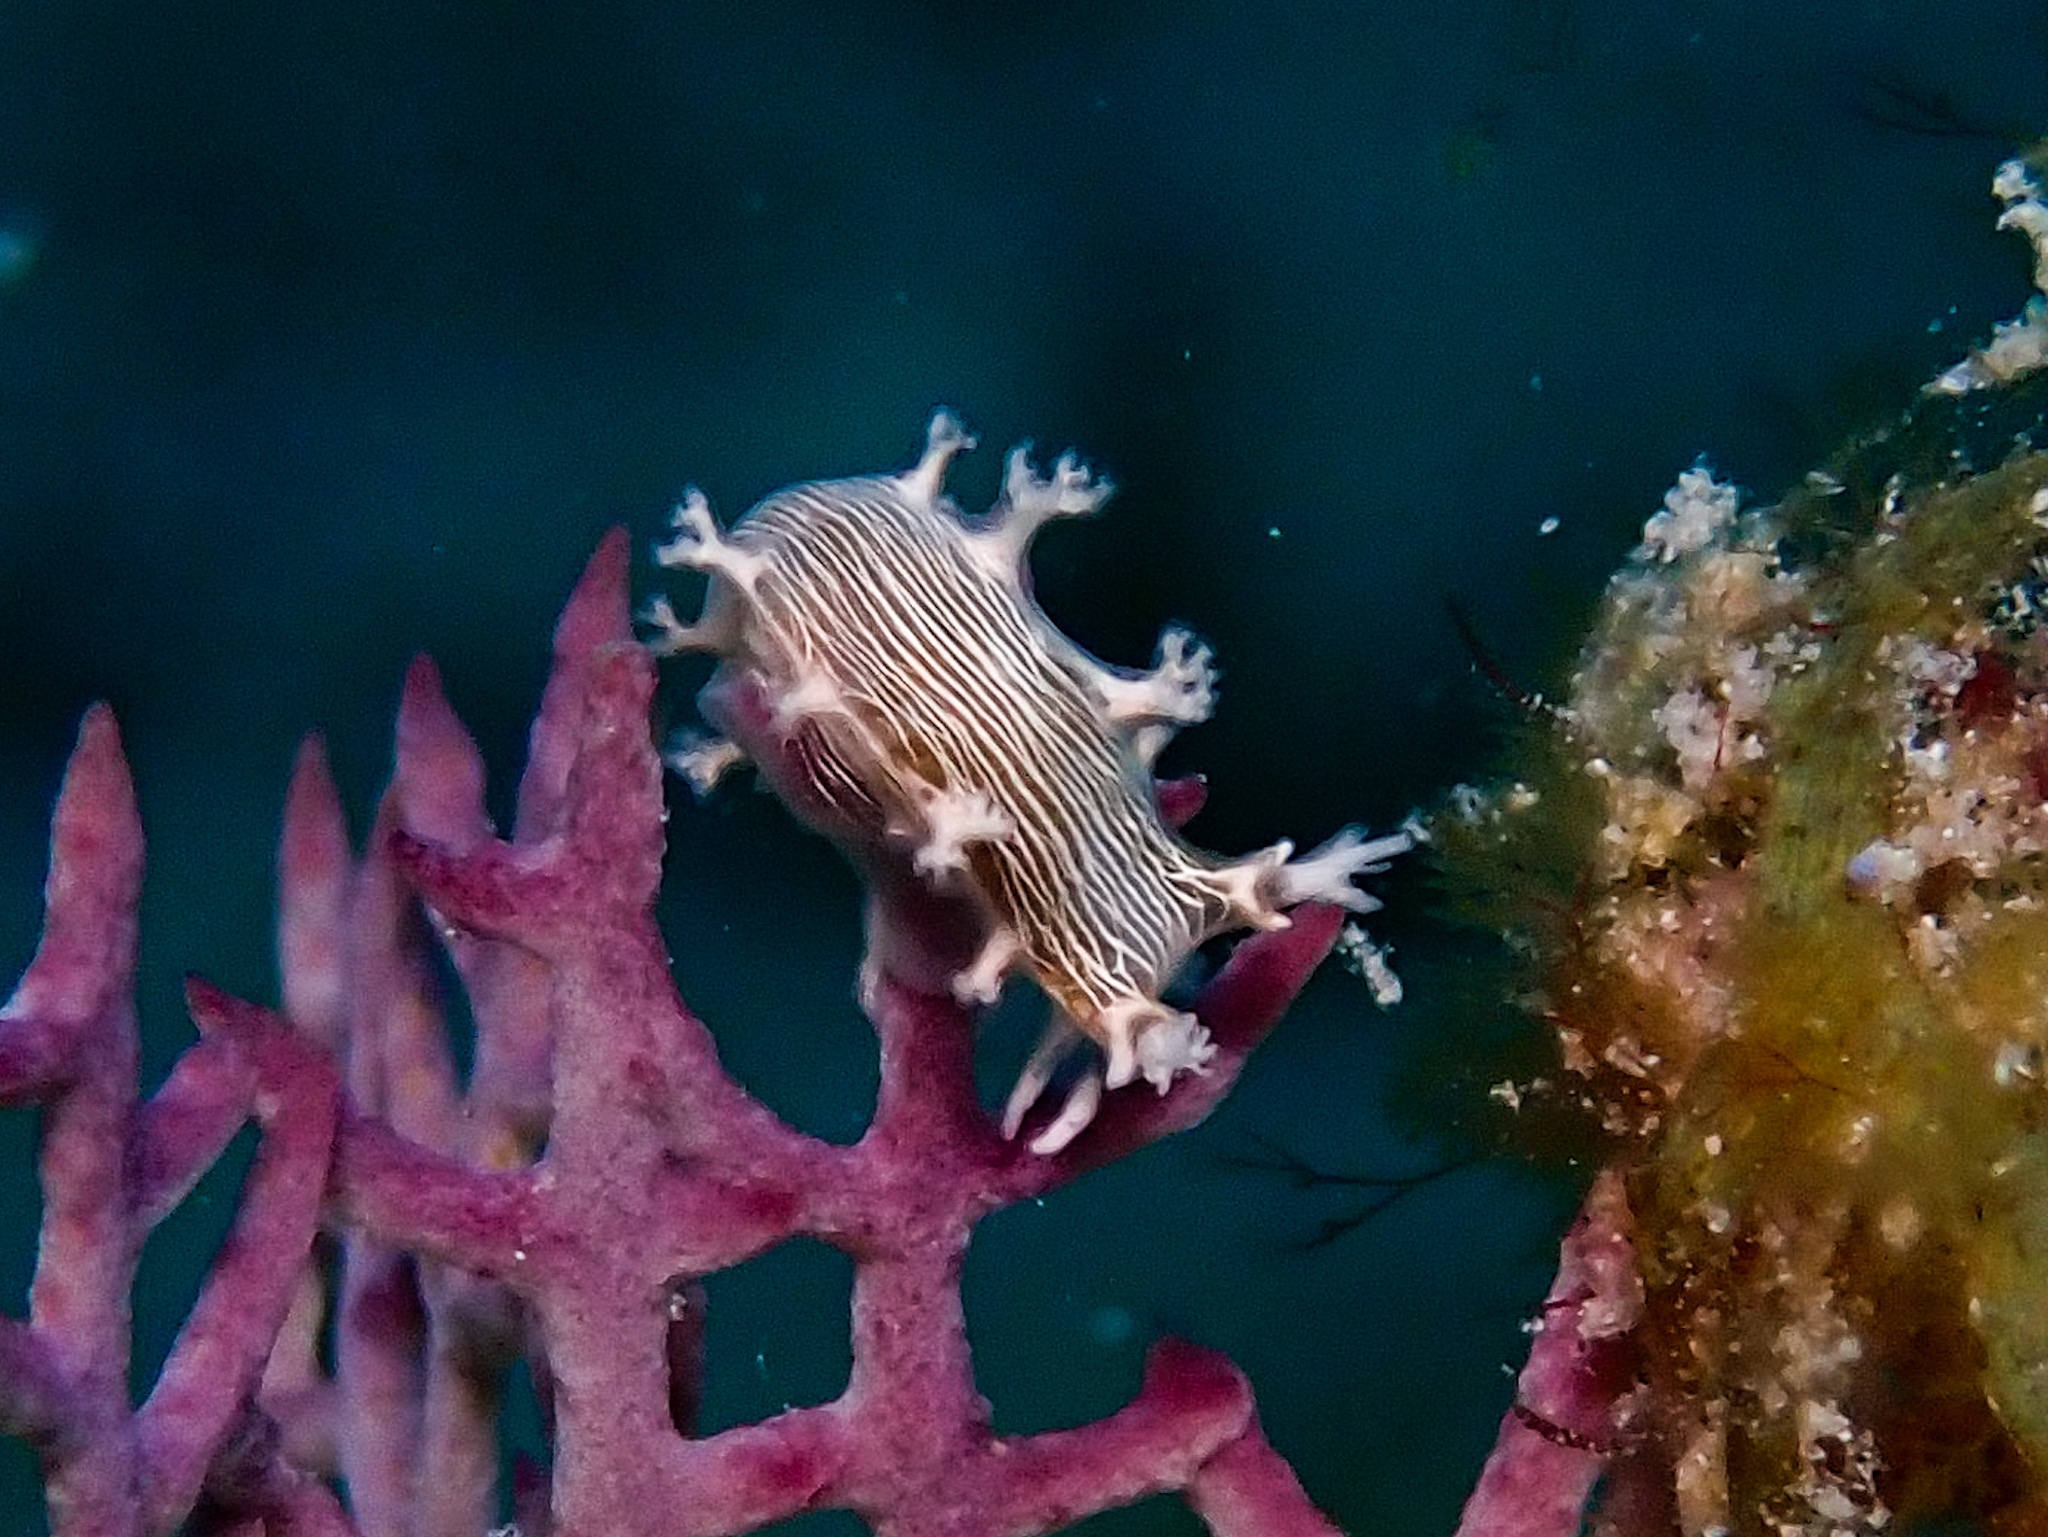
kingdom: Animalia
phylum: Mollusca
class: Gastropoda
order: Nudibranchia
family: Tritoniidae
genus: Tritonicula
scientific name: Tritonicula hamnerorum
